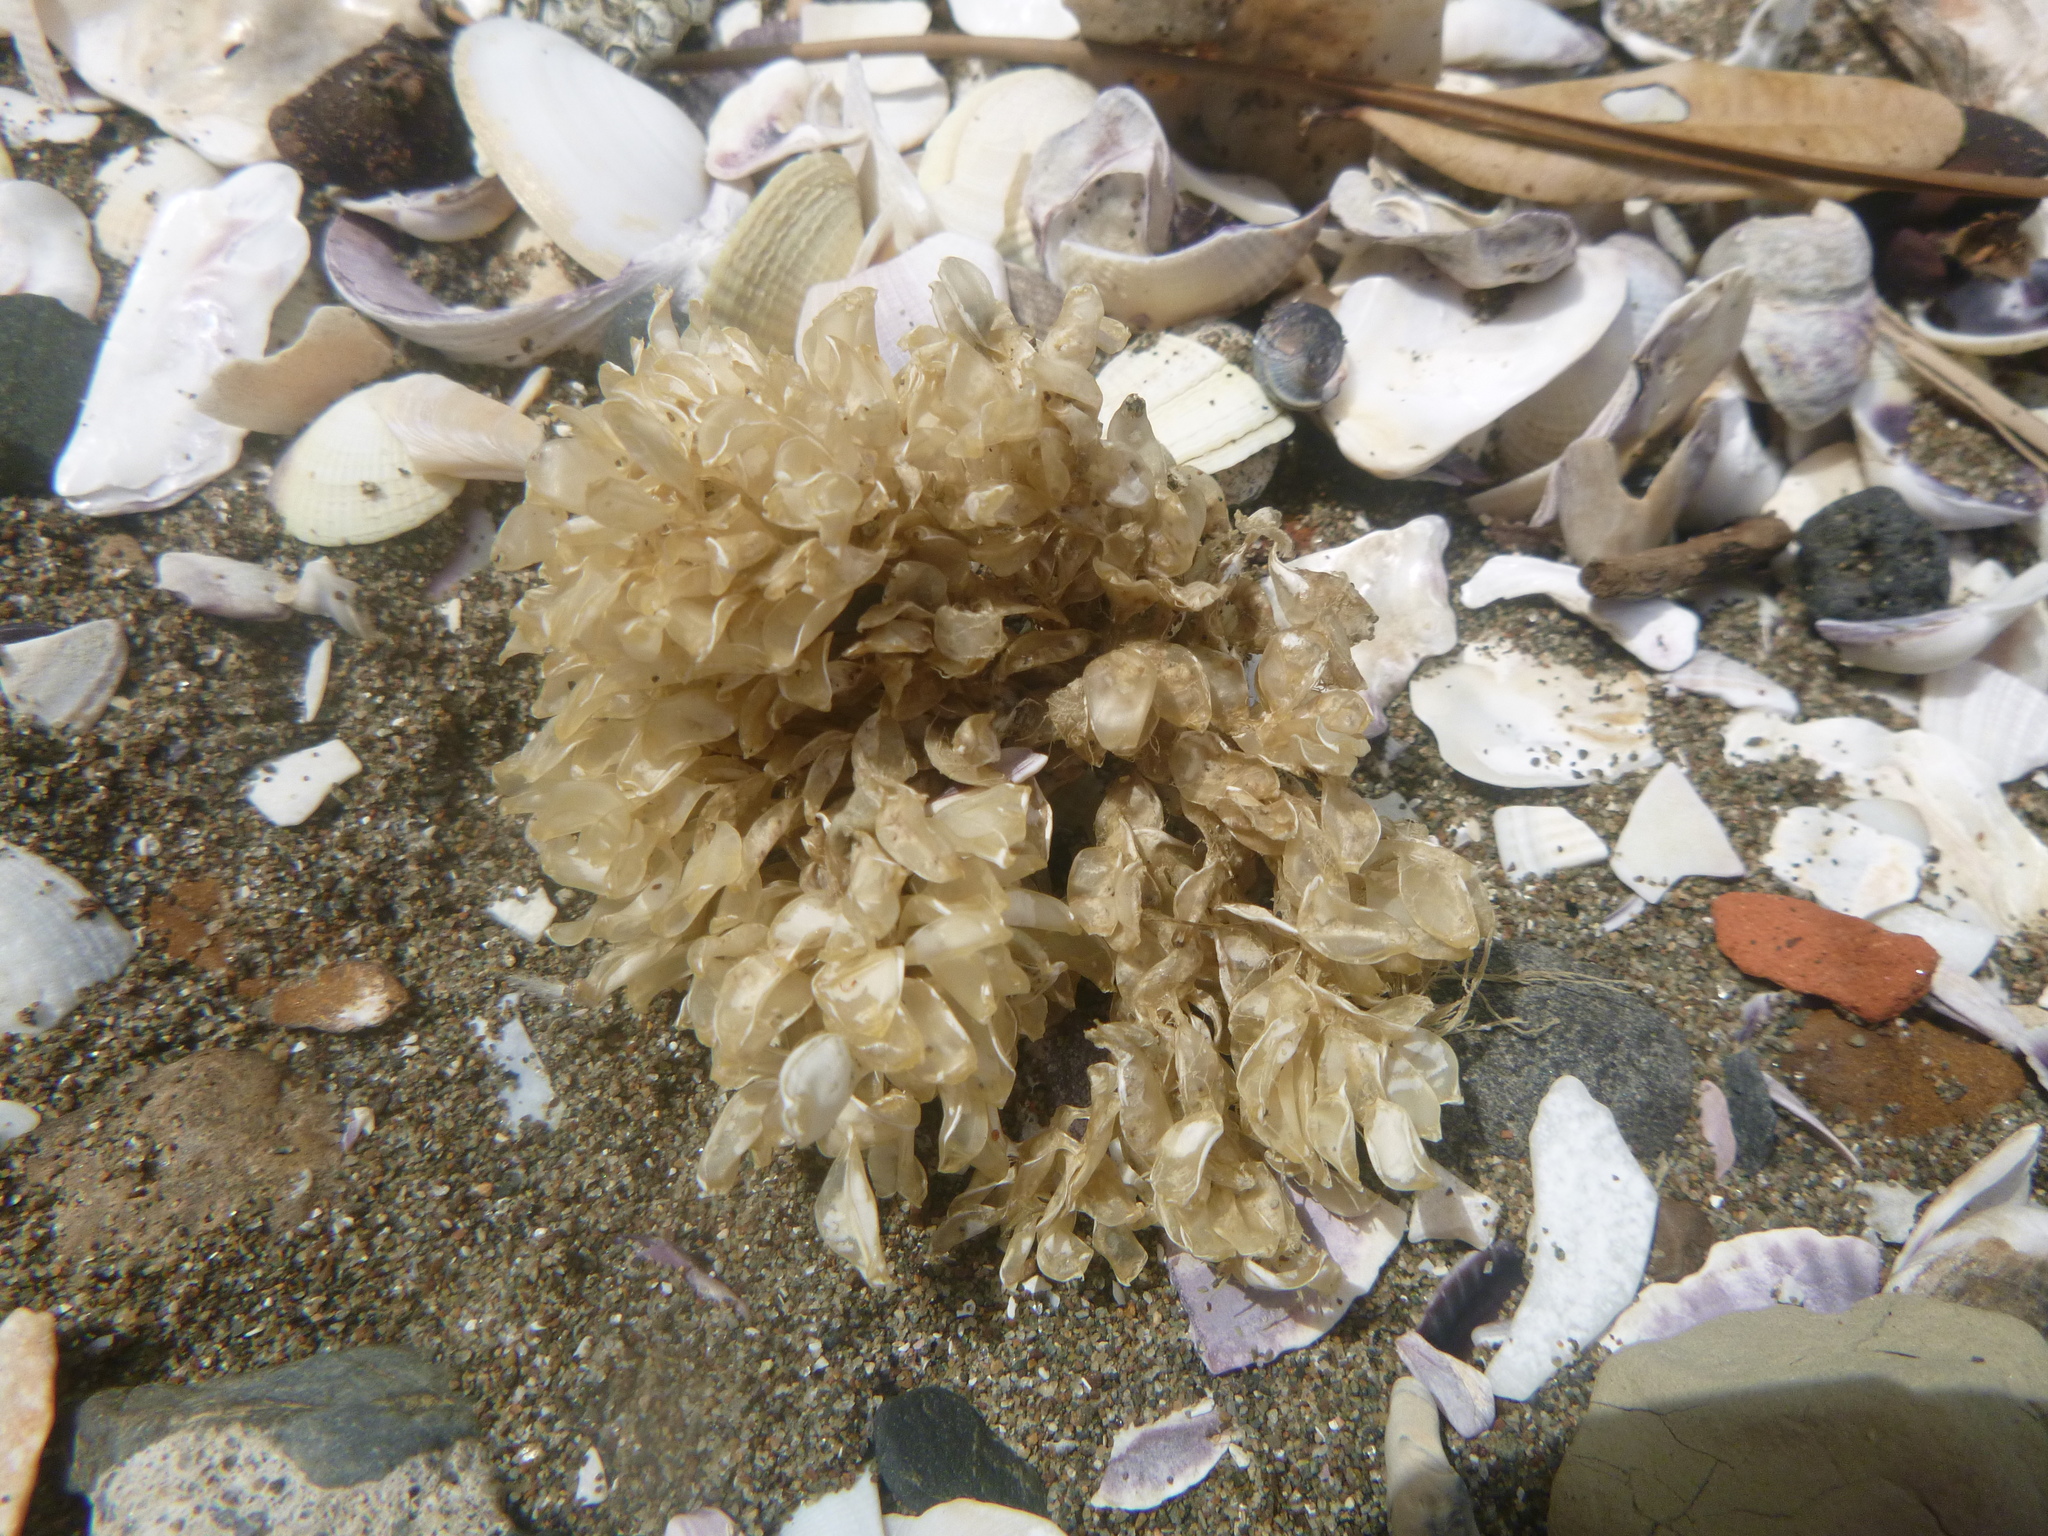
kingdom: Animalia
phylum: Mollusca
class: Gastropoda
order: Neogastropoda
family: Cominellidae
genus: Cominella
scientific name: Cominella adspersa
